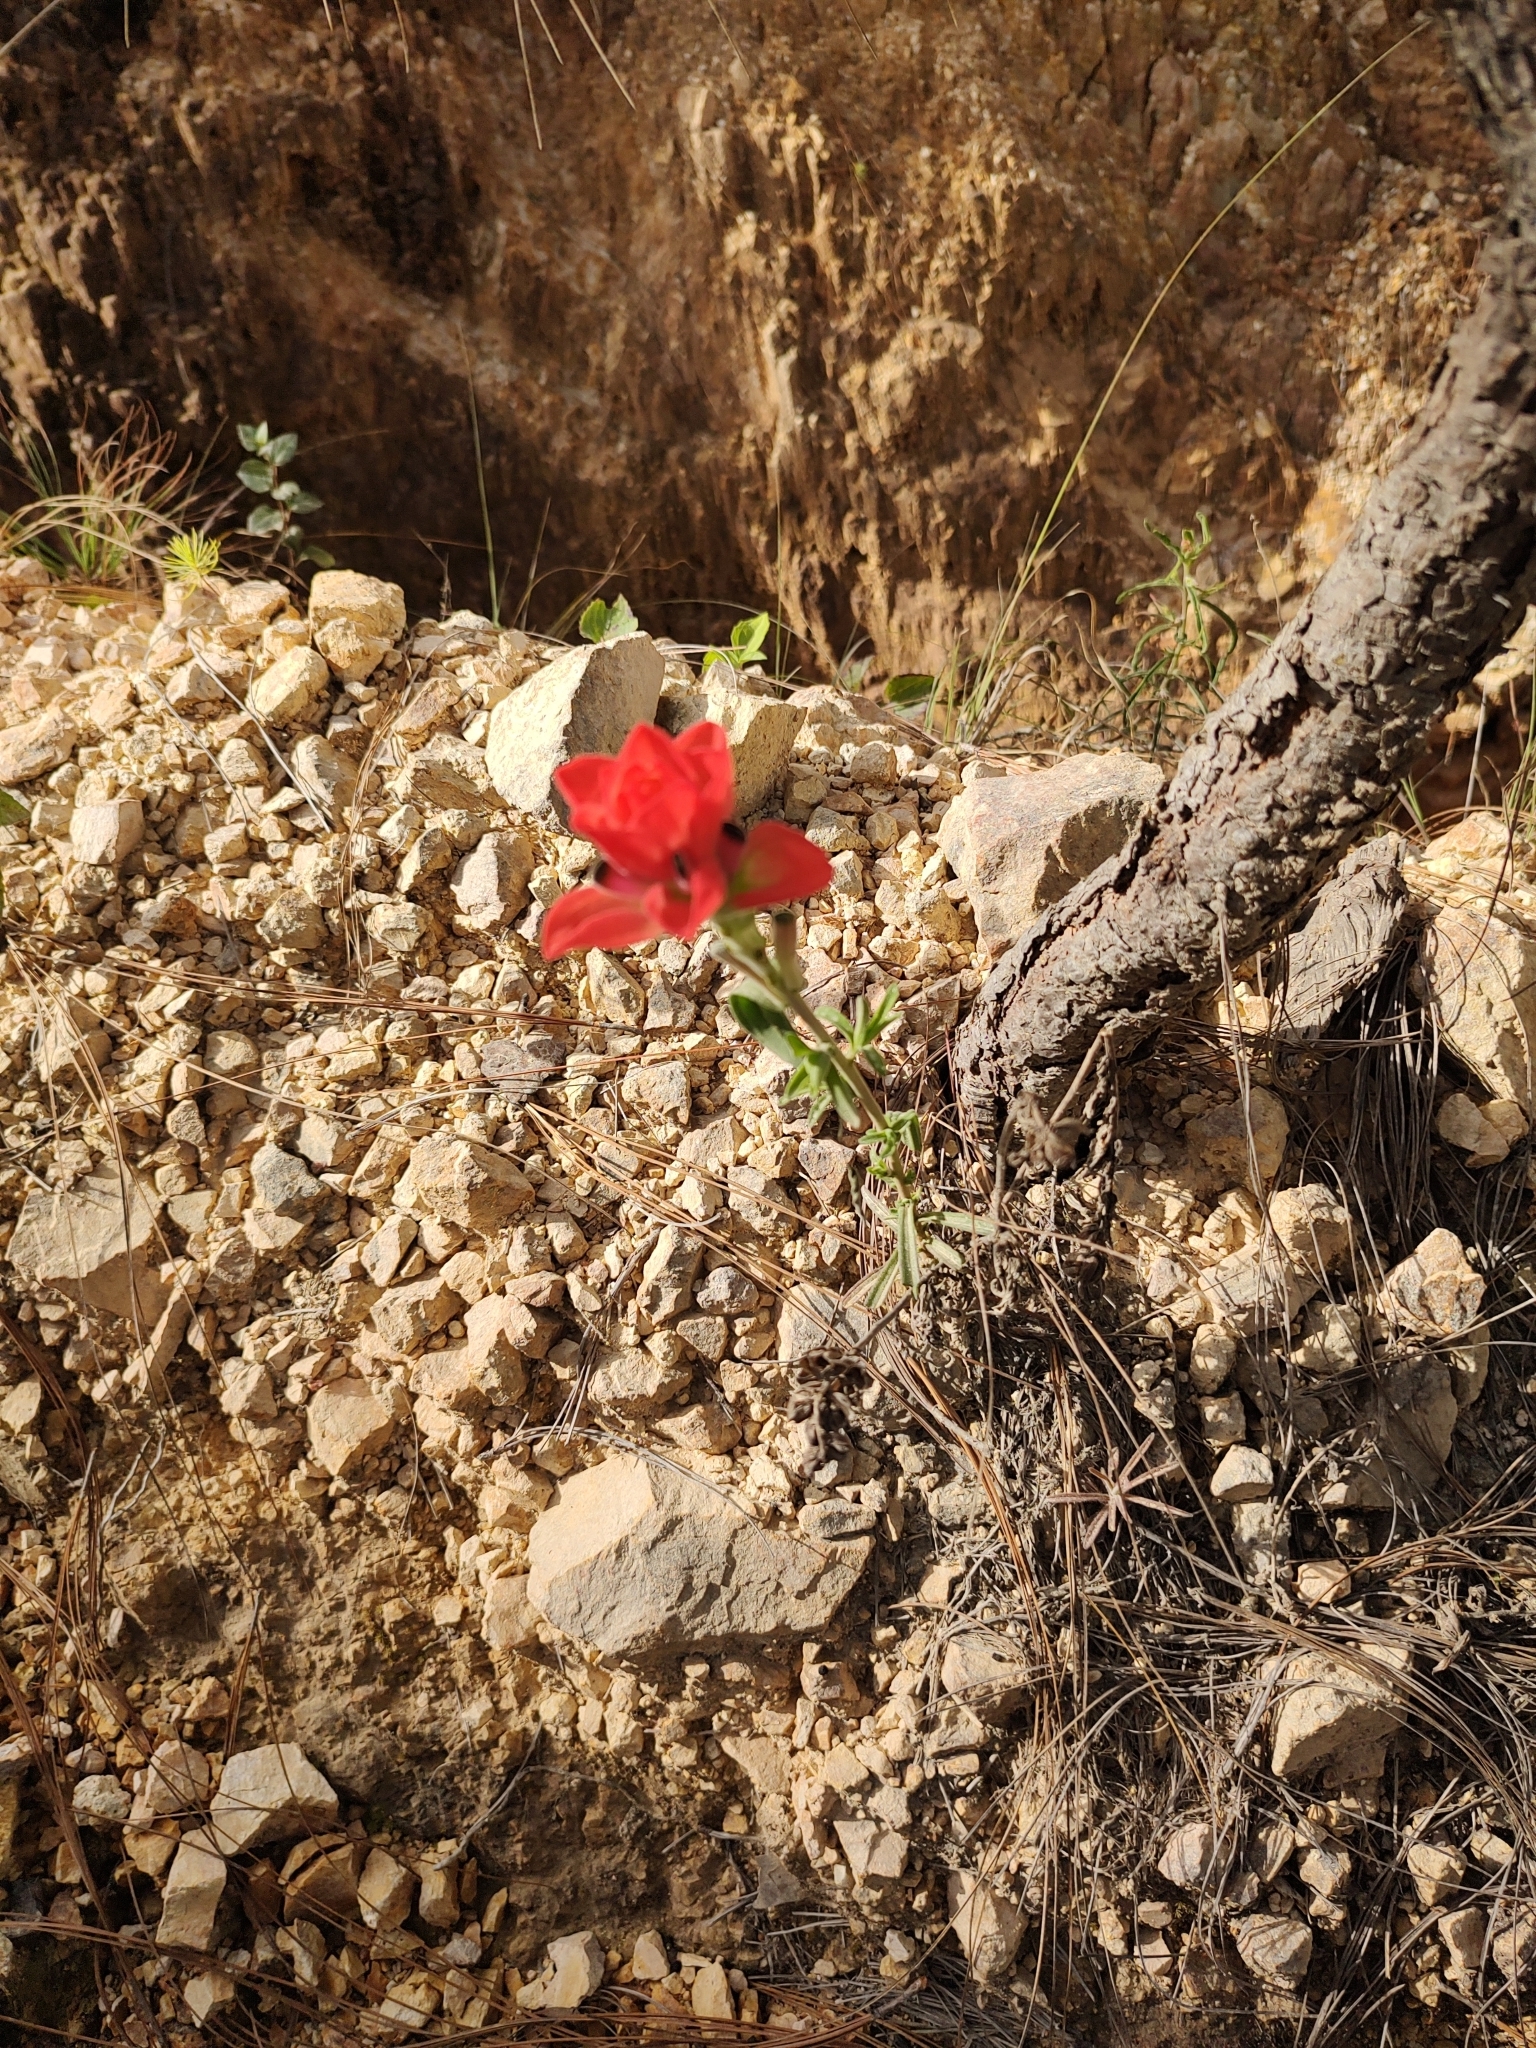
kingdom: Plantae
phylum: Tracheophyta
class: Magnoliopsida
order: Lamiales
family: Orobanchaceae
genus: Castilleja
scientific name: Castilleja nervata
